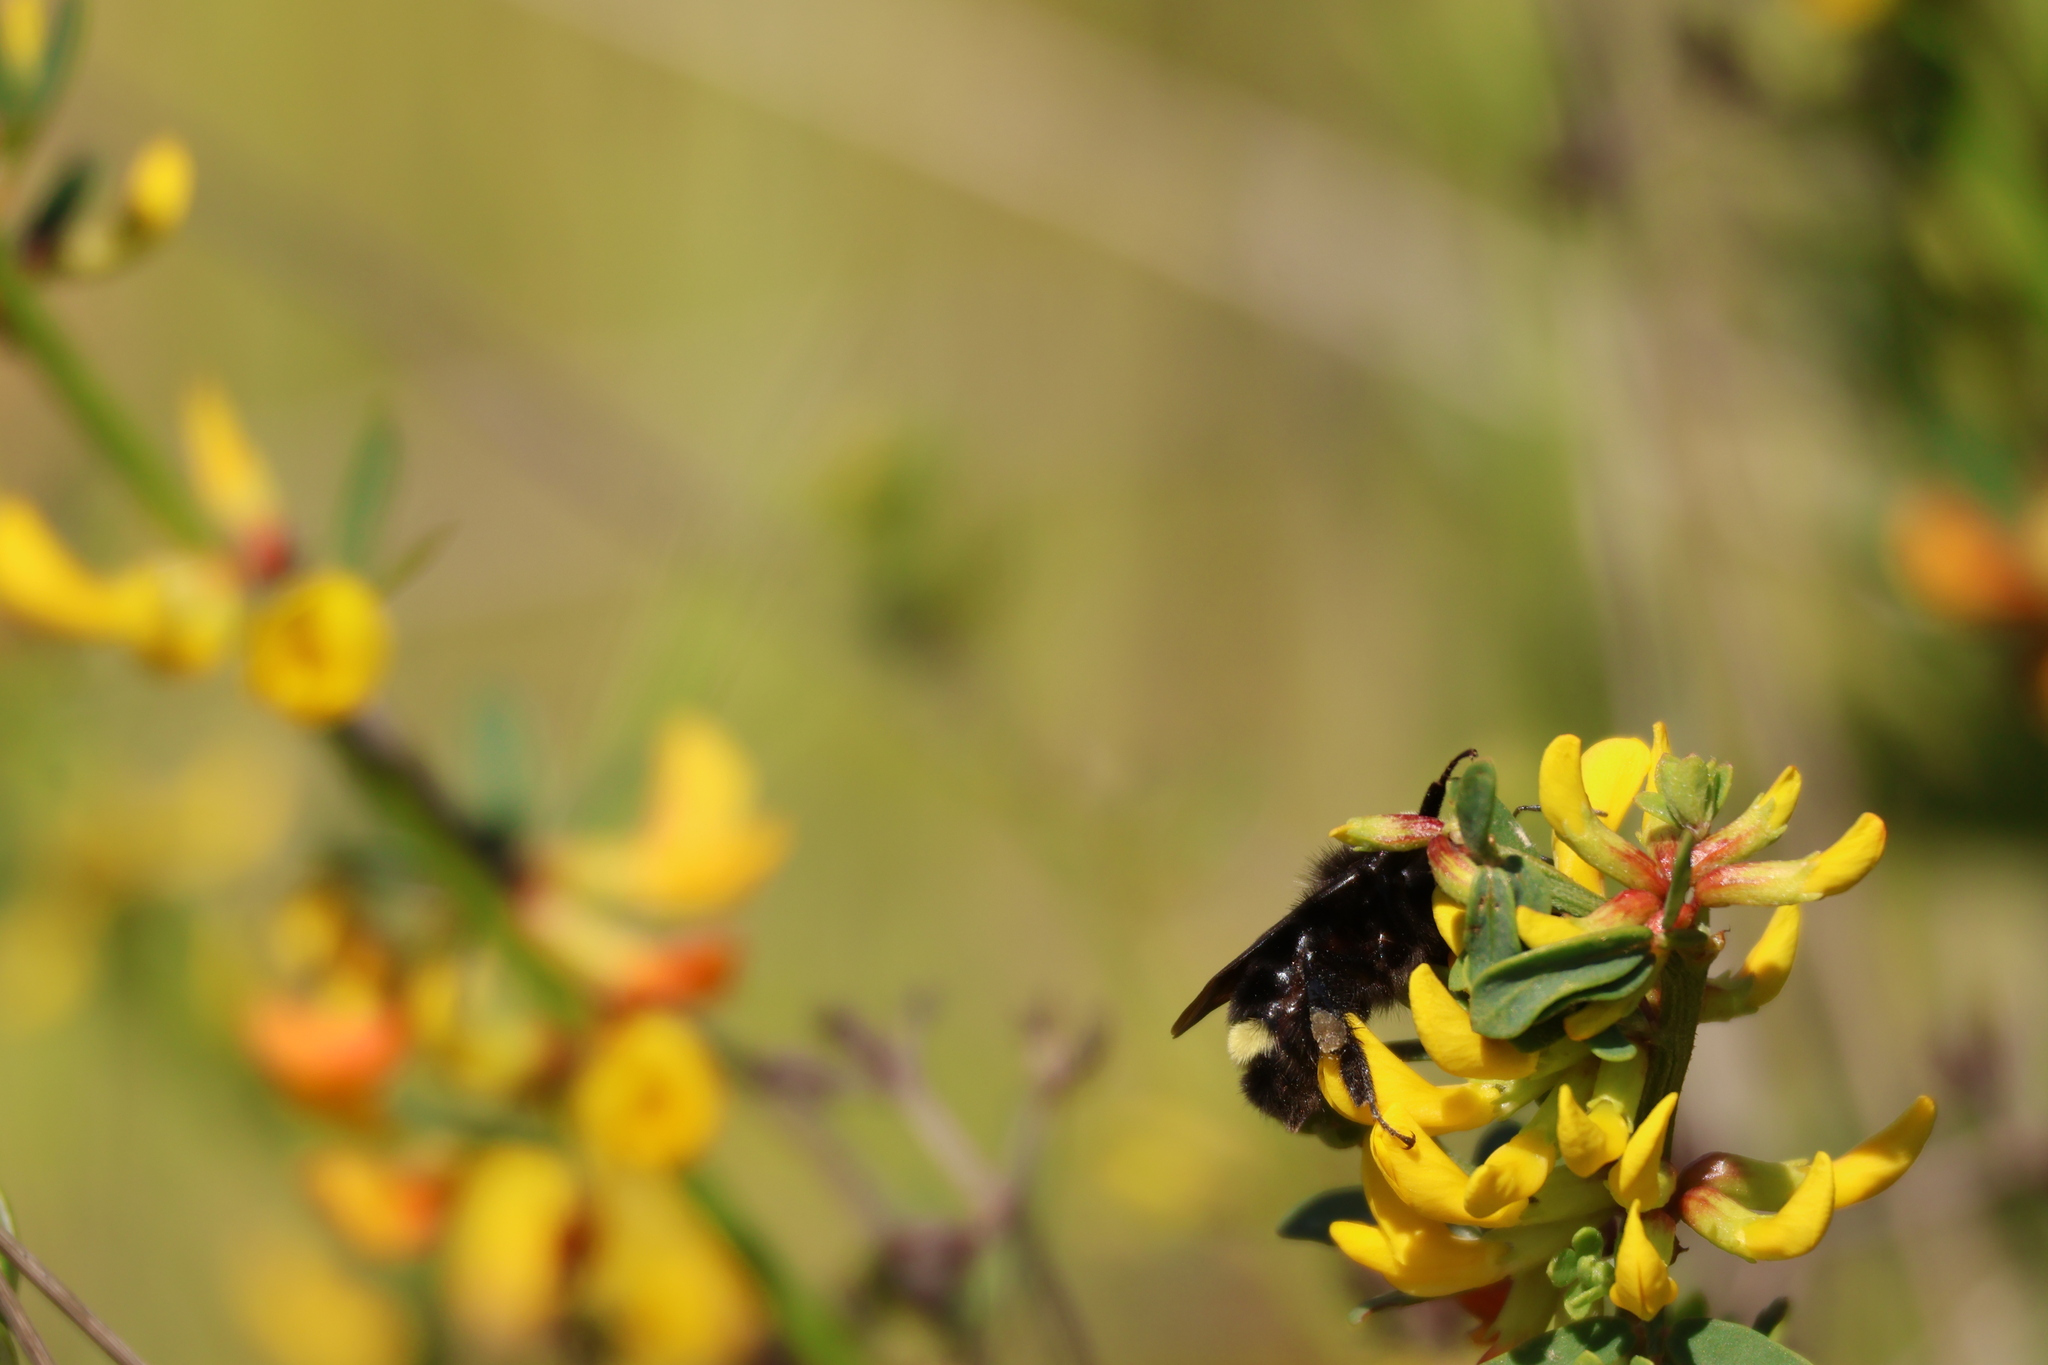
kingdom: Animalia
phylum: Arthropoda
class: Insecta
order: Hymenoptera
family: Apidae
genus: Bombus
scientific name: Bombus vosnesenskii
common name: Vosnesensky bumble bee
